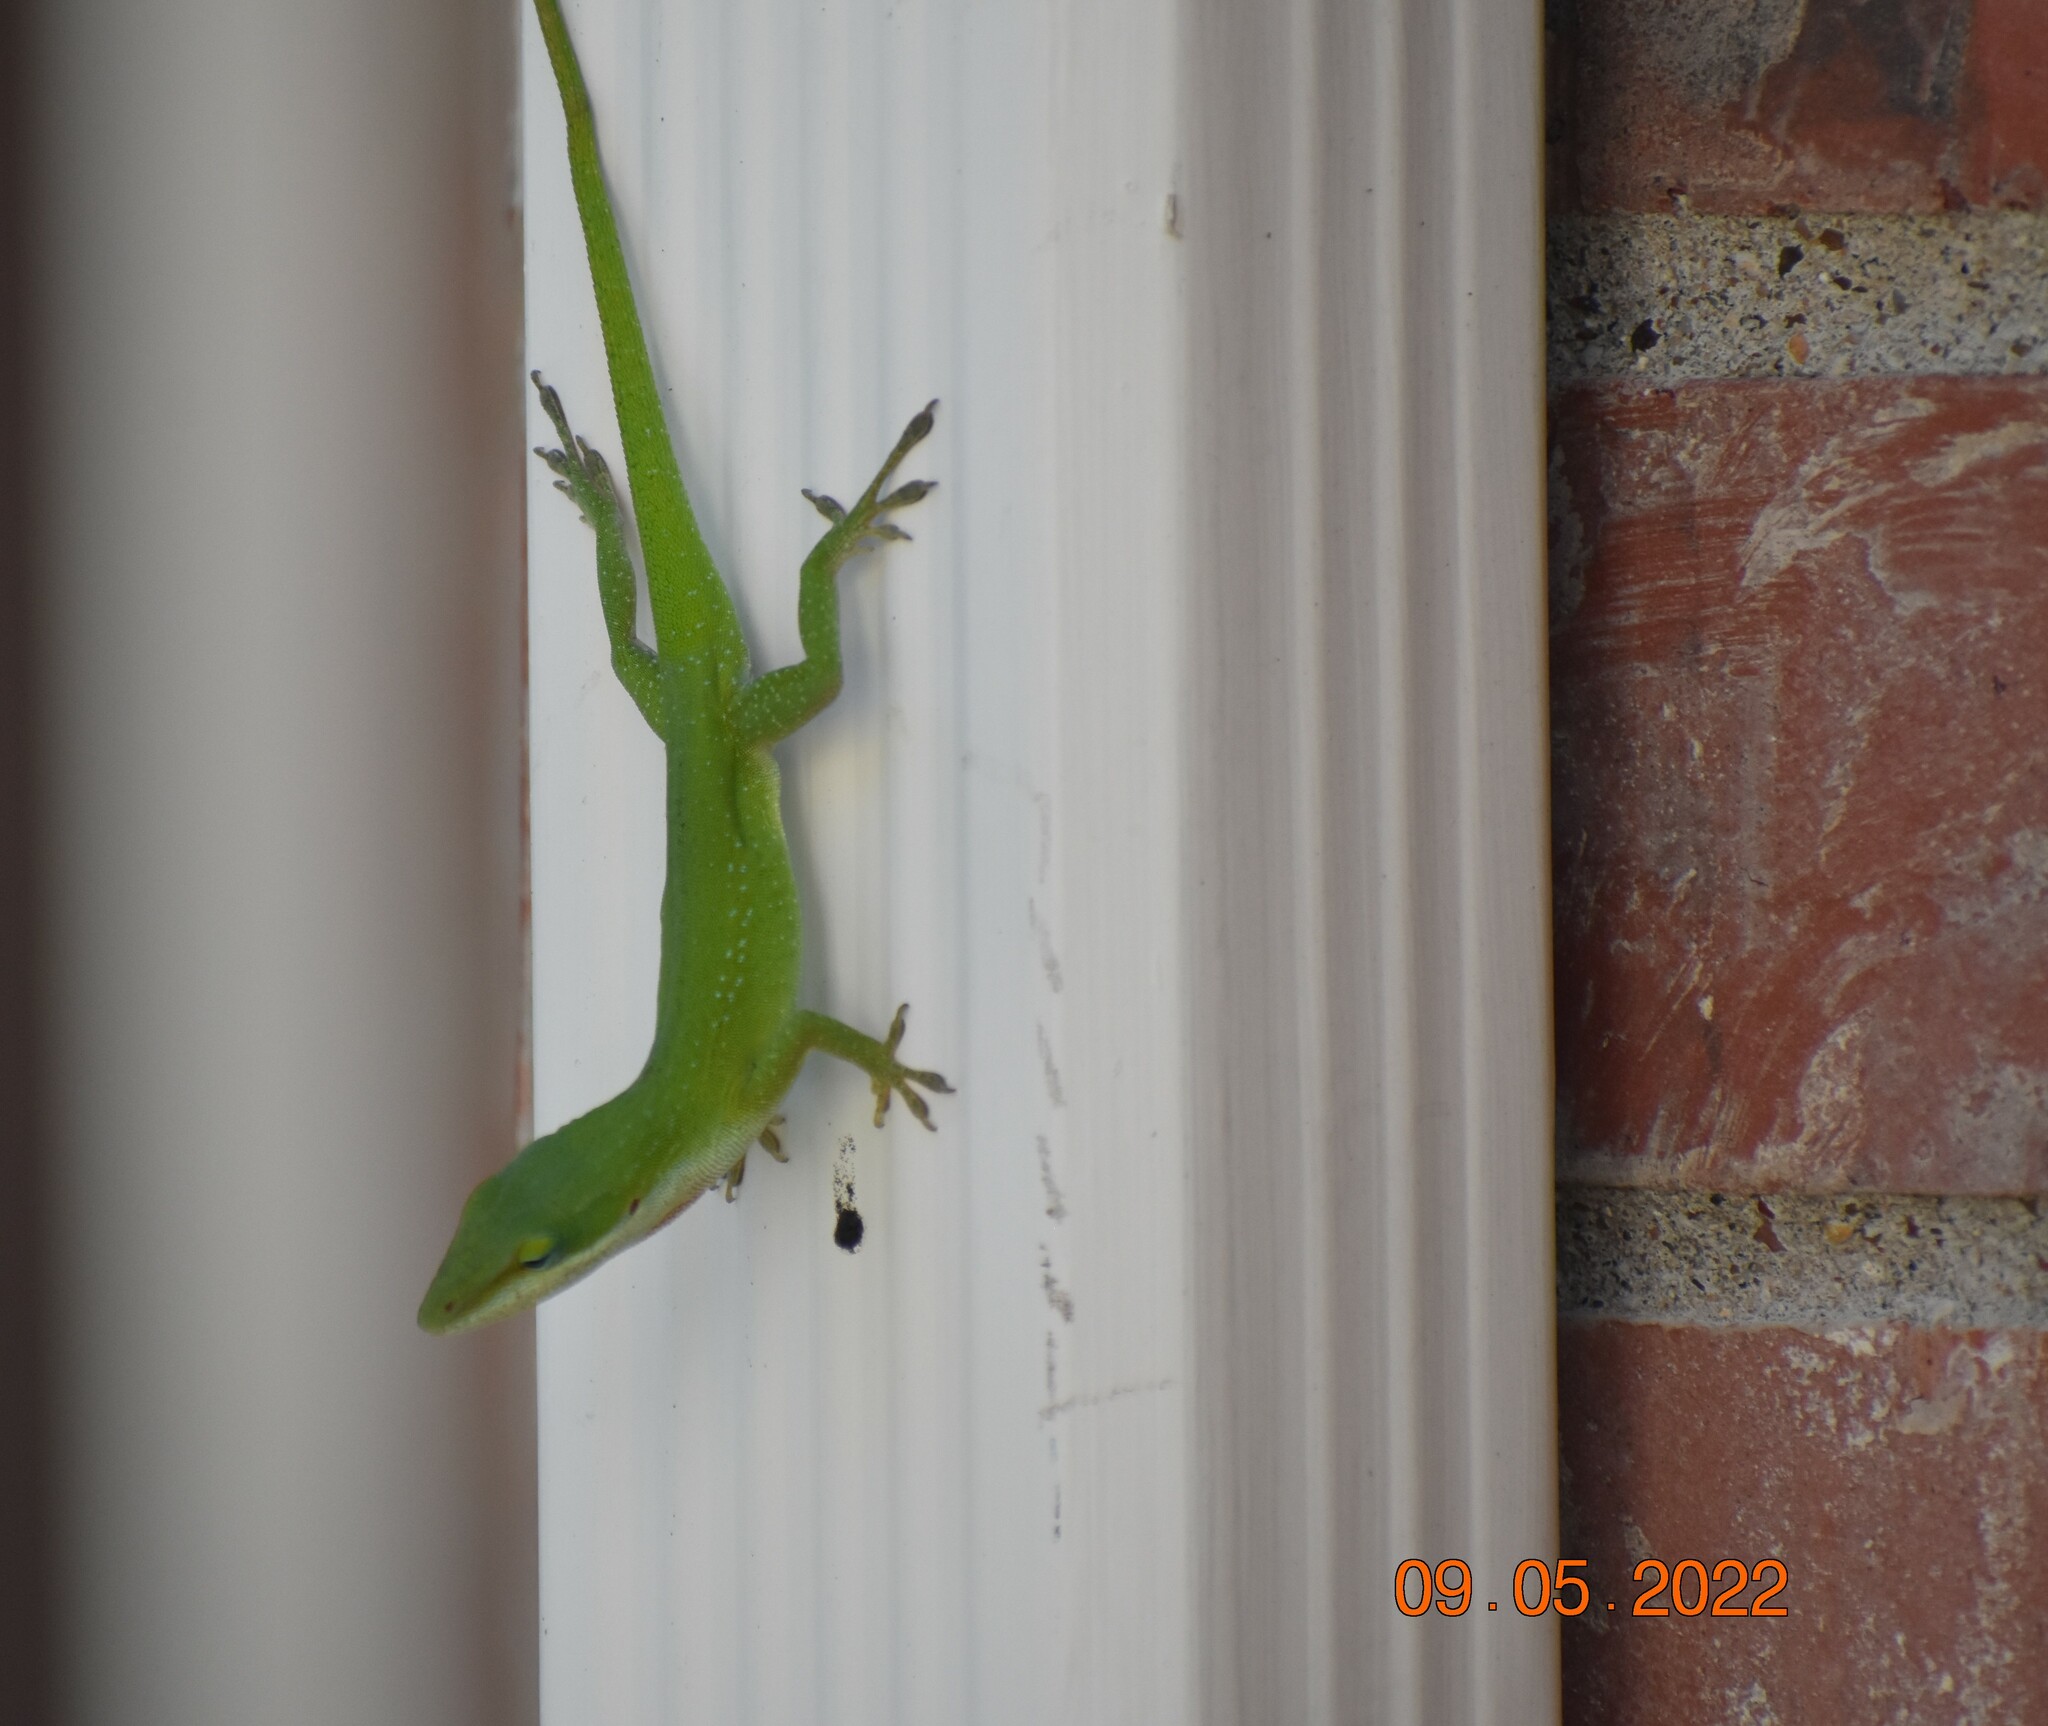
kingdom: Animalia
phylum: Chordata
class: Squamata
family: Dactyloidae
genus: Anolis
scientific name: Anolis carolinensis
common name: Green anole
